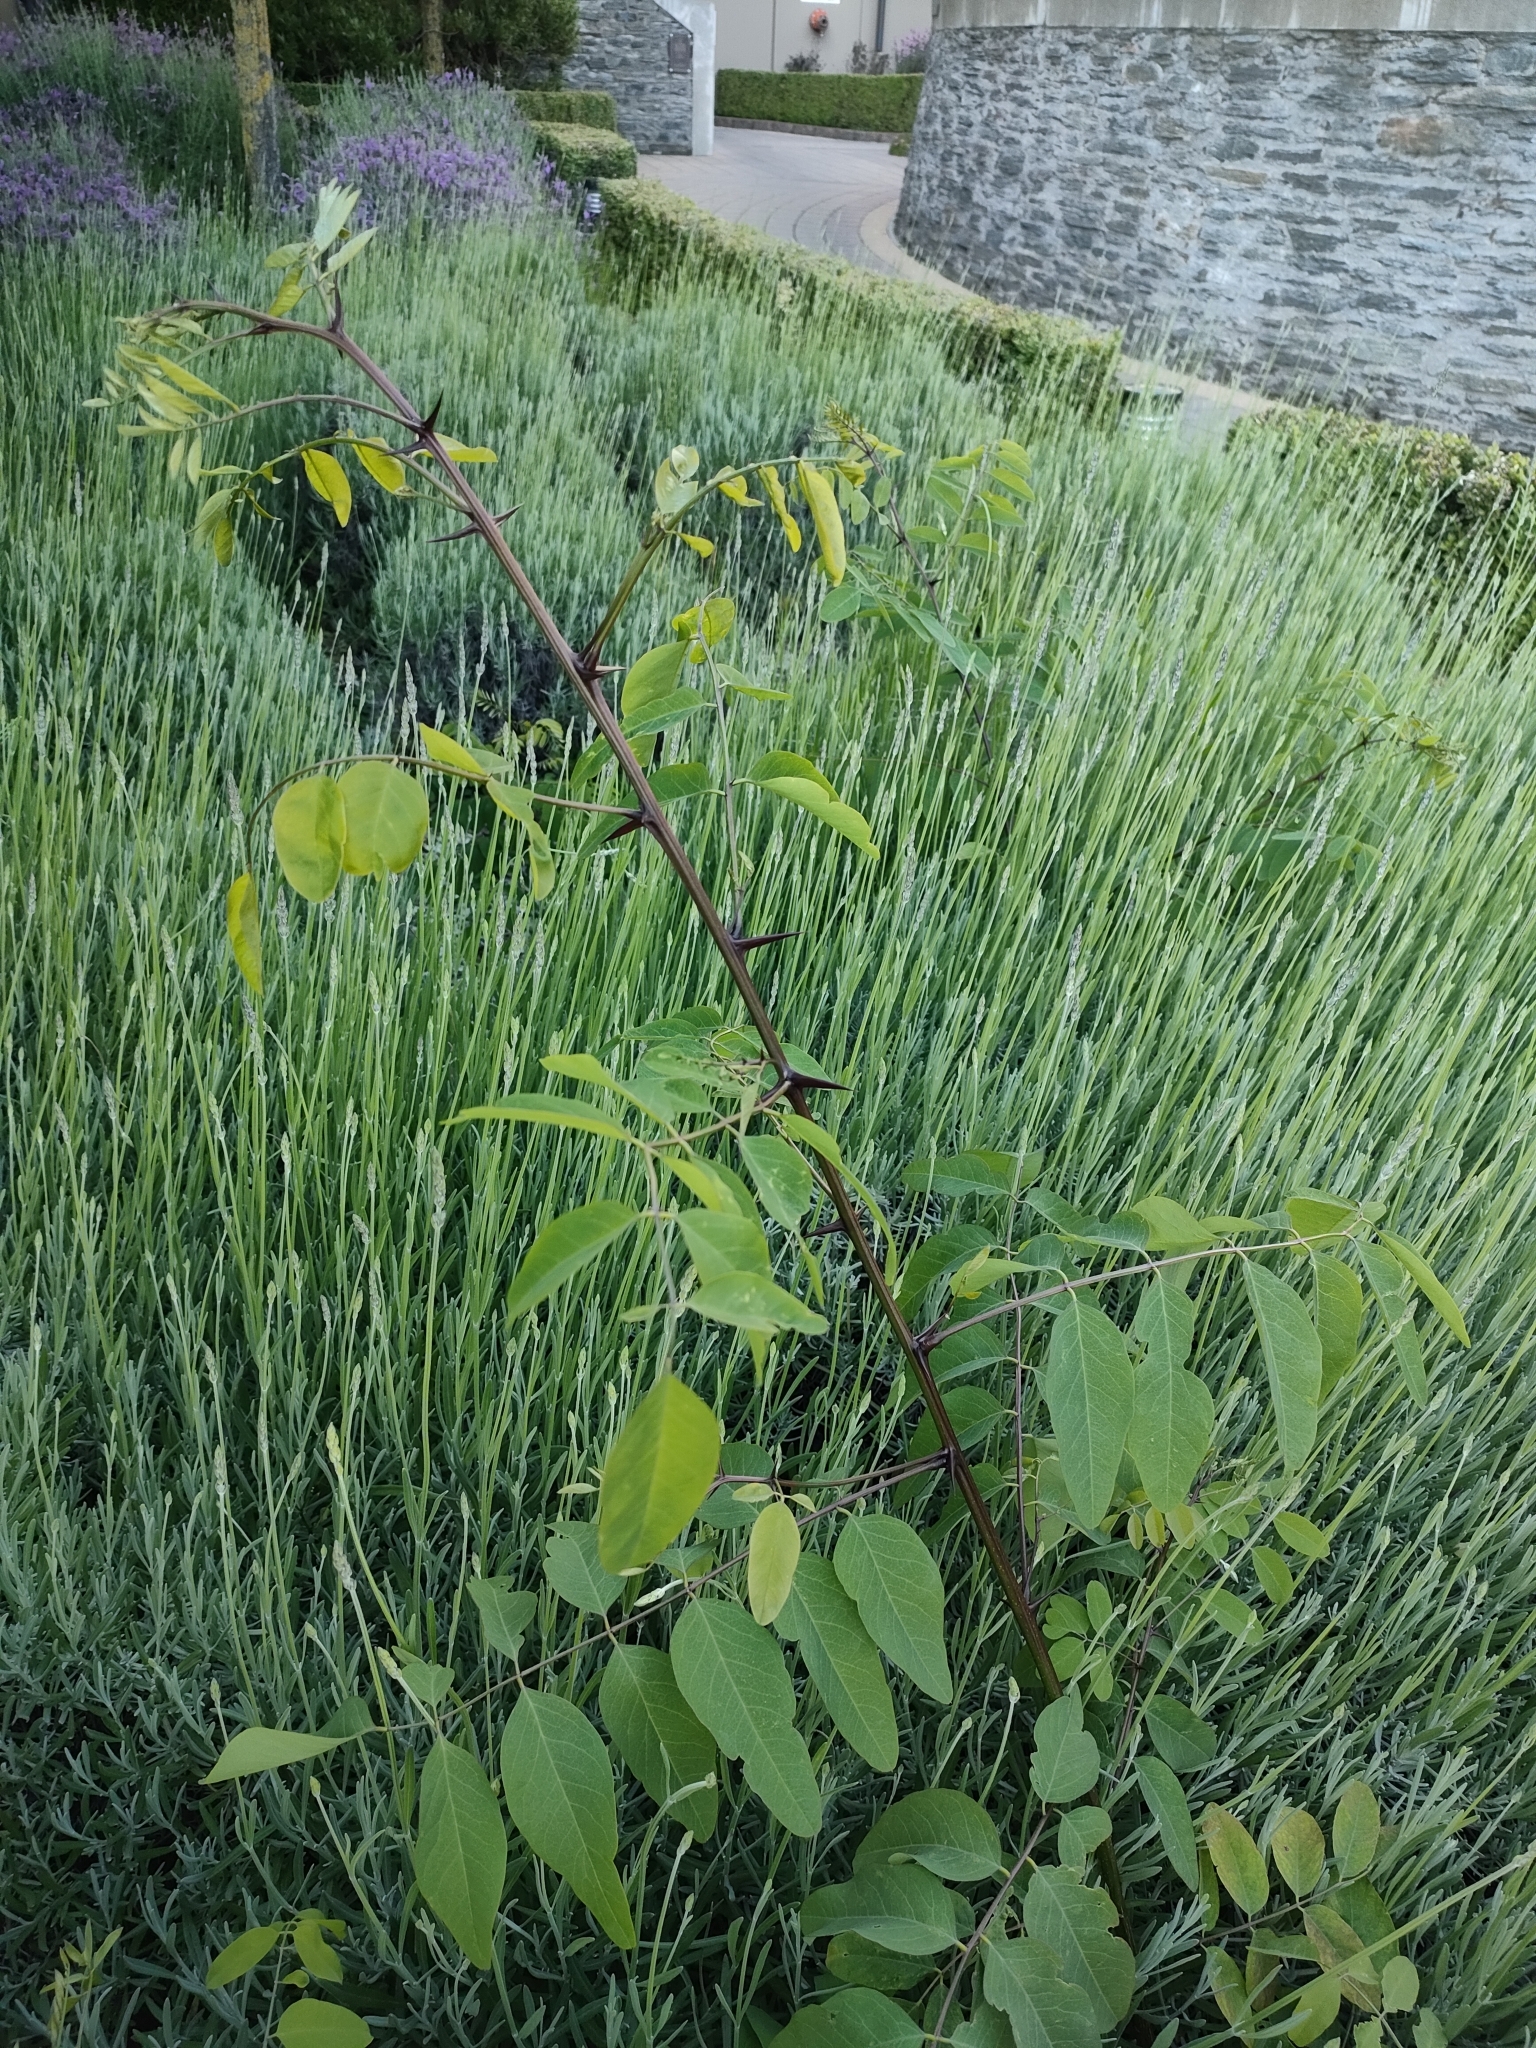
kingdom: Plantae
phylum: Tracheophyta
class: Magnoliopsida
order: Fabales
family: Fabaceae
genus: Robinia
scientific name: Robinia pseudoacacia
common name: Black locust
